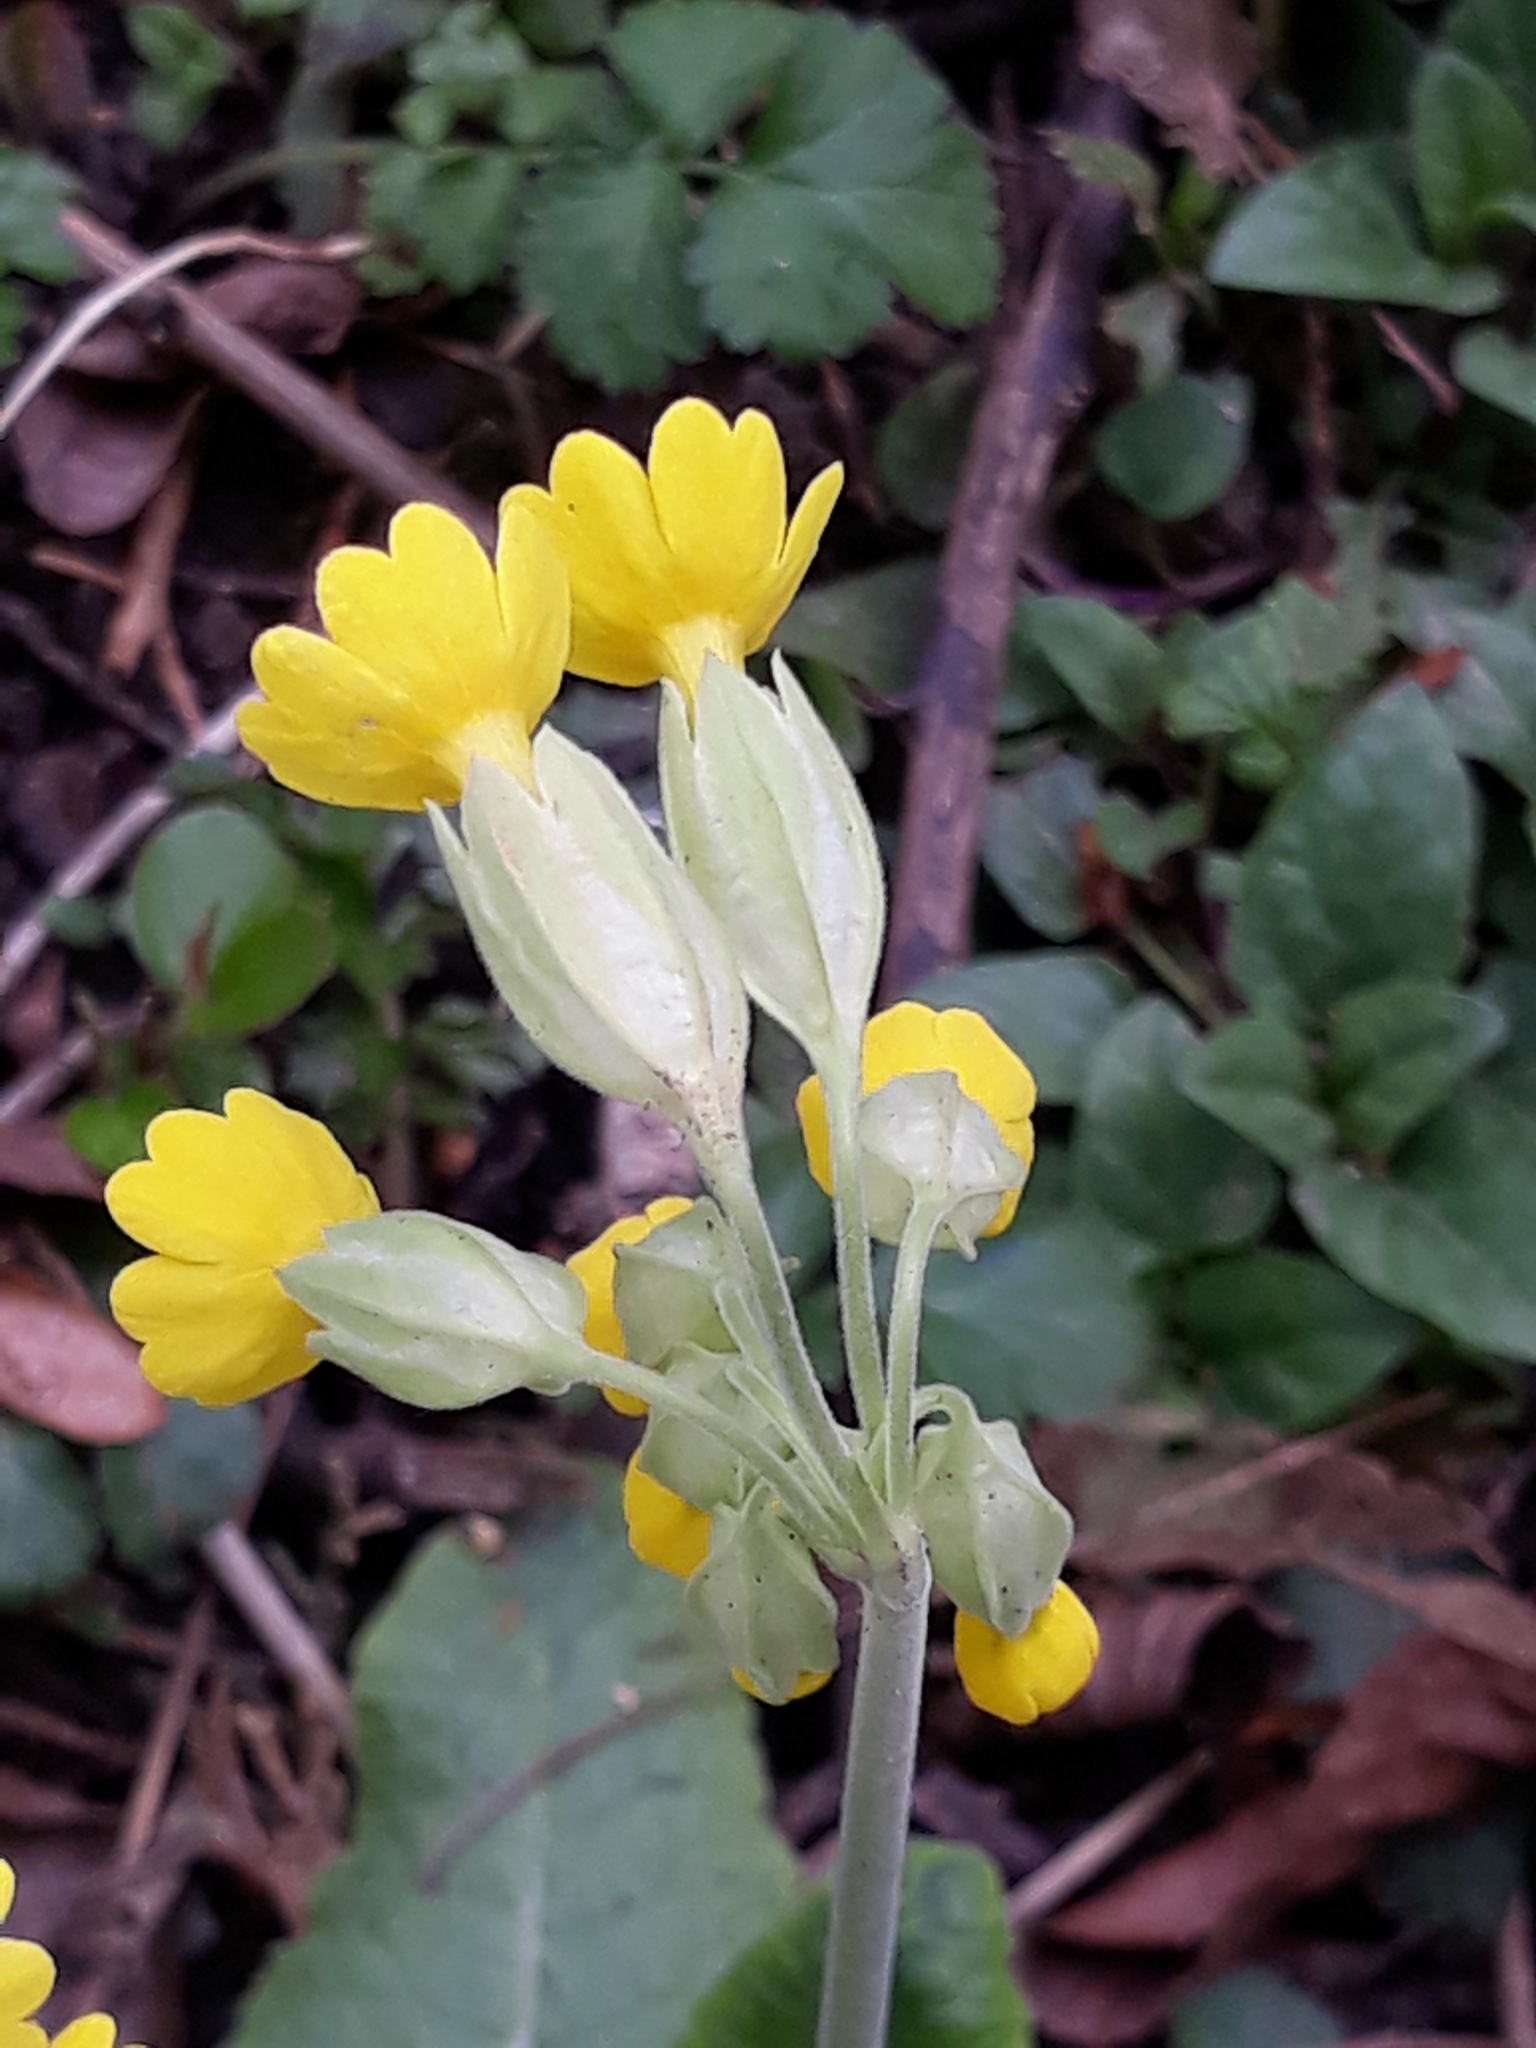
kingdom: Plantae
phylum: Tracheophyta
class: Magnoliopsida
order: Ericales
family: Primulaceae
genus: Primula
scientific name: Primula veris
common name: Cowslip
